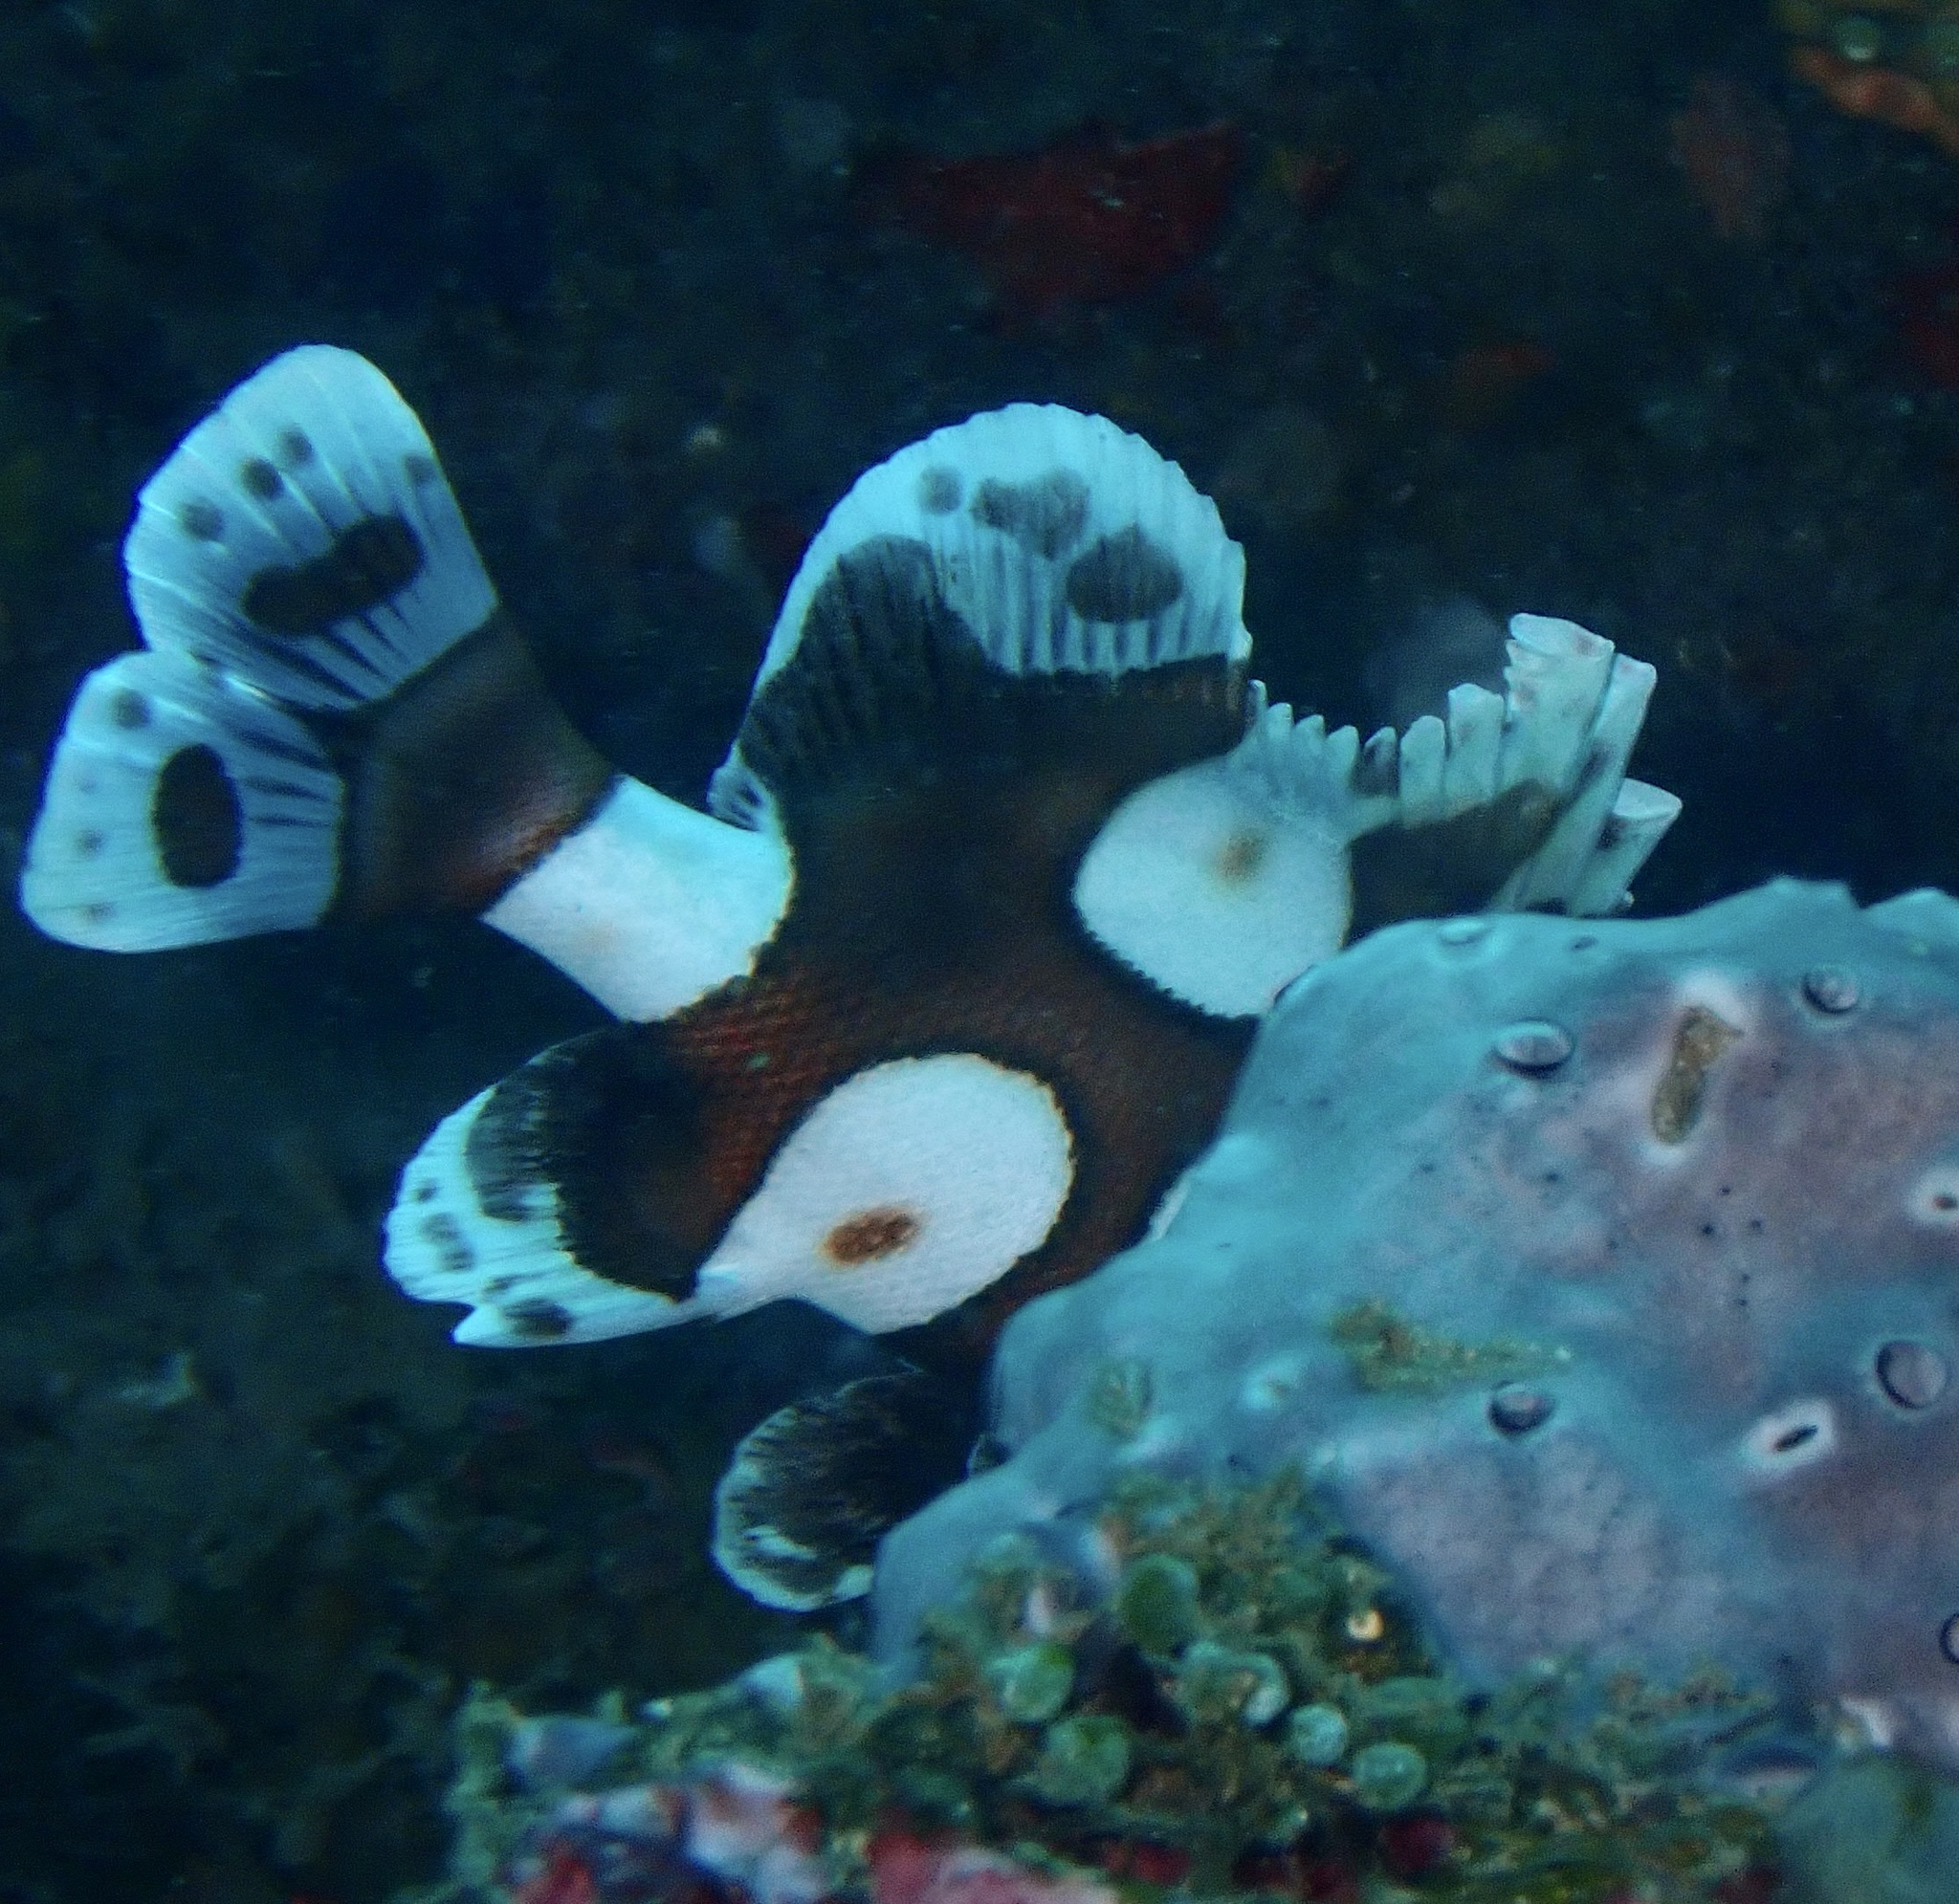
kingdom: Animalia
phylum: Chordata
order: Perciformes
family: Haemulidae
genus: Plectorhinchus
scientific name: Plectorhinchus chaetodonoides
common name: Harlequin sweetlips
